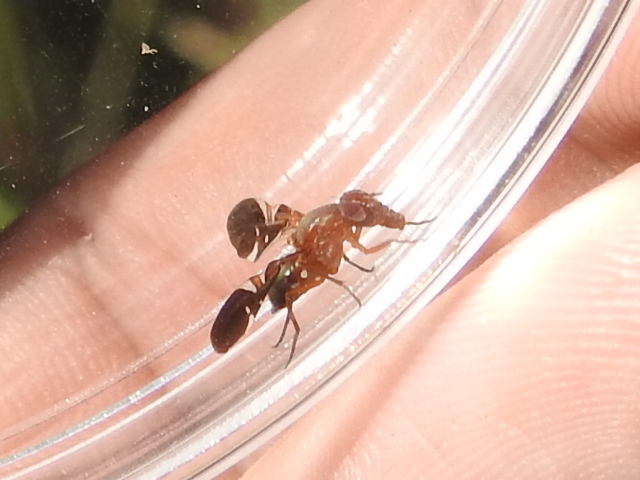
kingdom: Animalia
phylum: Arthropoda
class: Insecta
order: Diptera
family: Ulidiidae
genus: Delphinia
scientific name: Delphinia picta
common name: Common picture-winged fly
